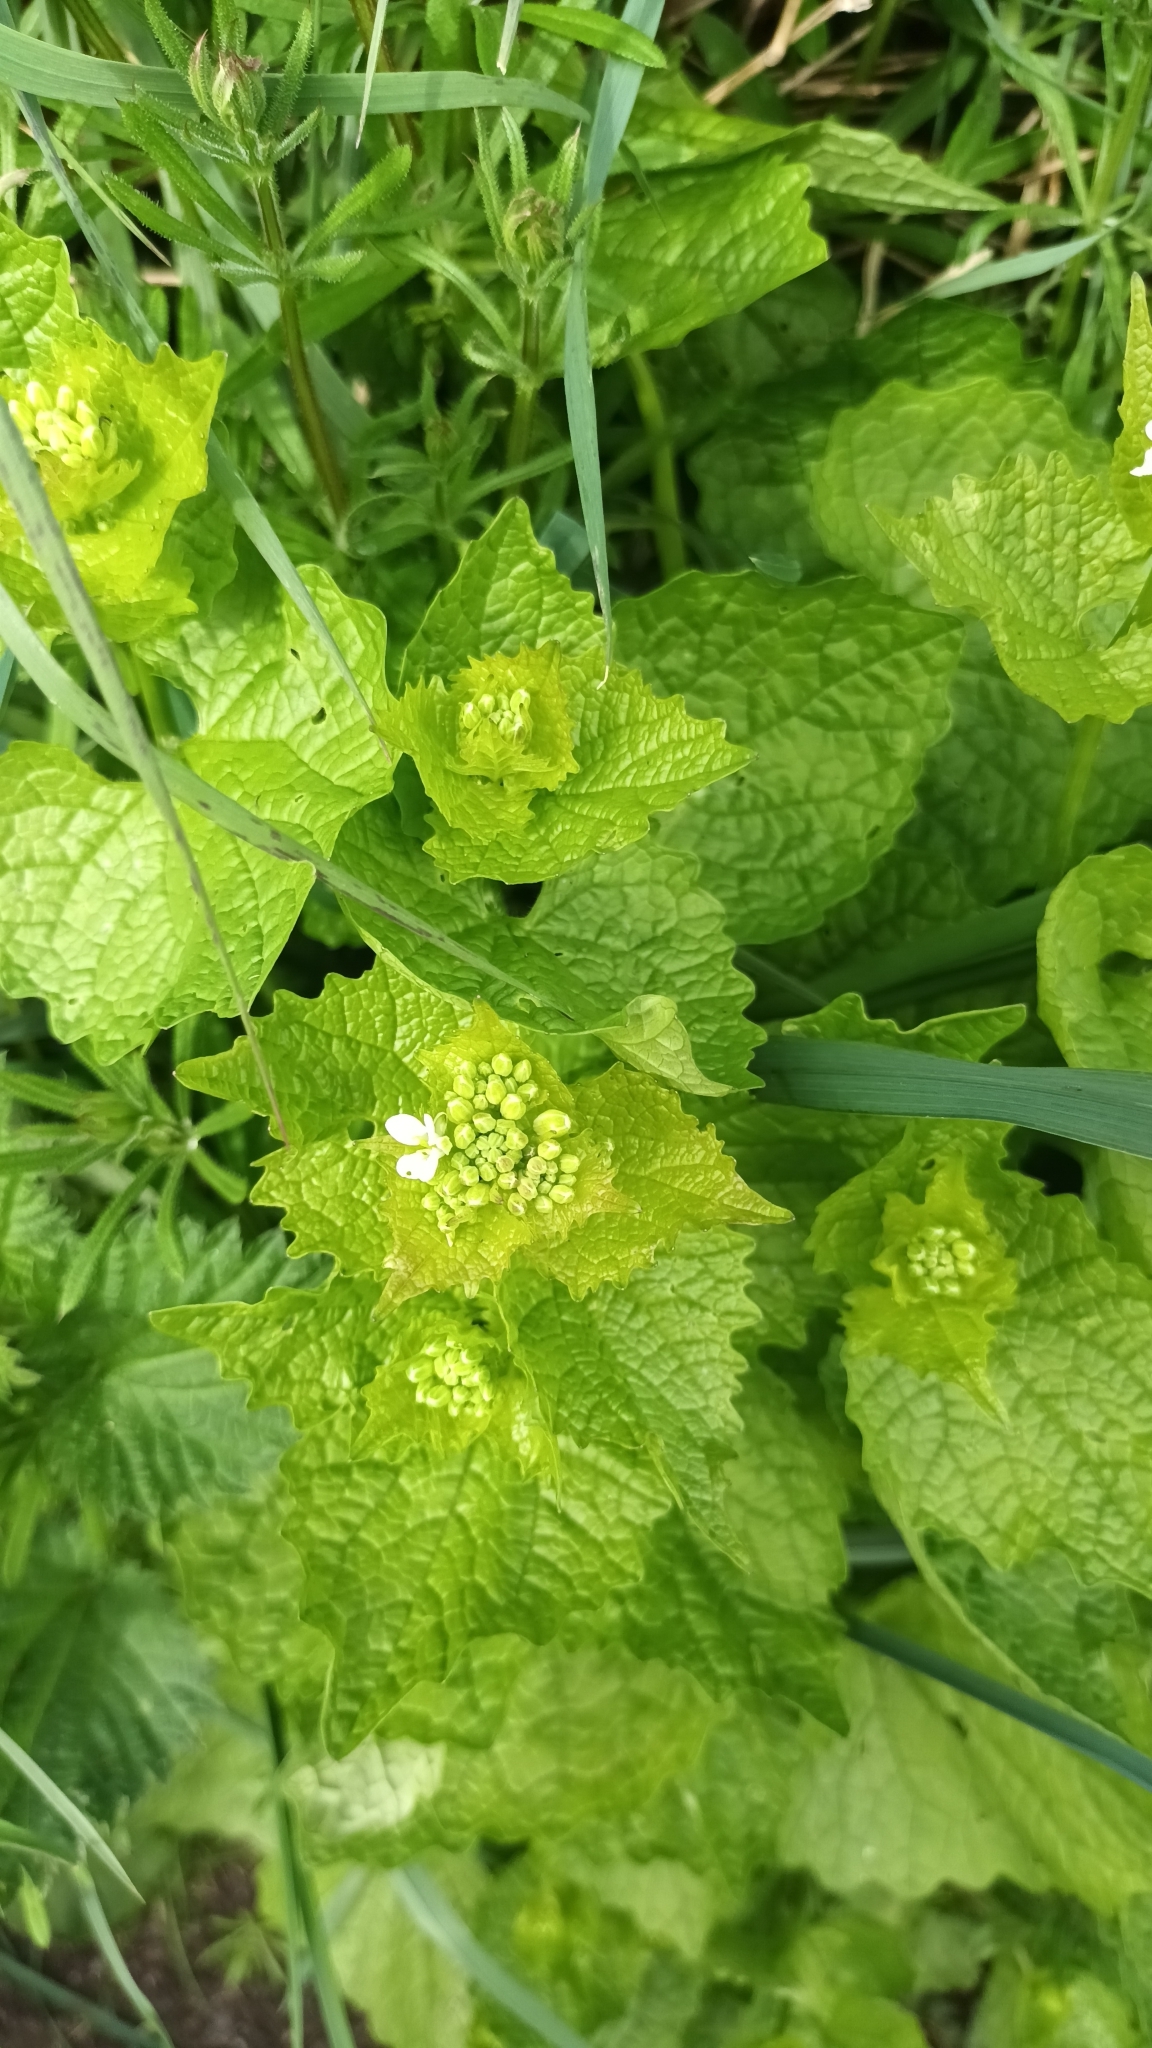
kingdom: Plantae
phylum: Tracheophyta
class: Magnoliopsida
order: Brassicales
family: Brassicaceae
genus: Alliaria
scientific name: Alliaria petiolata
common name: Garlic mustard
